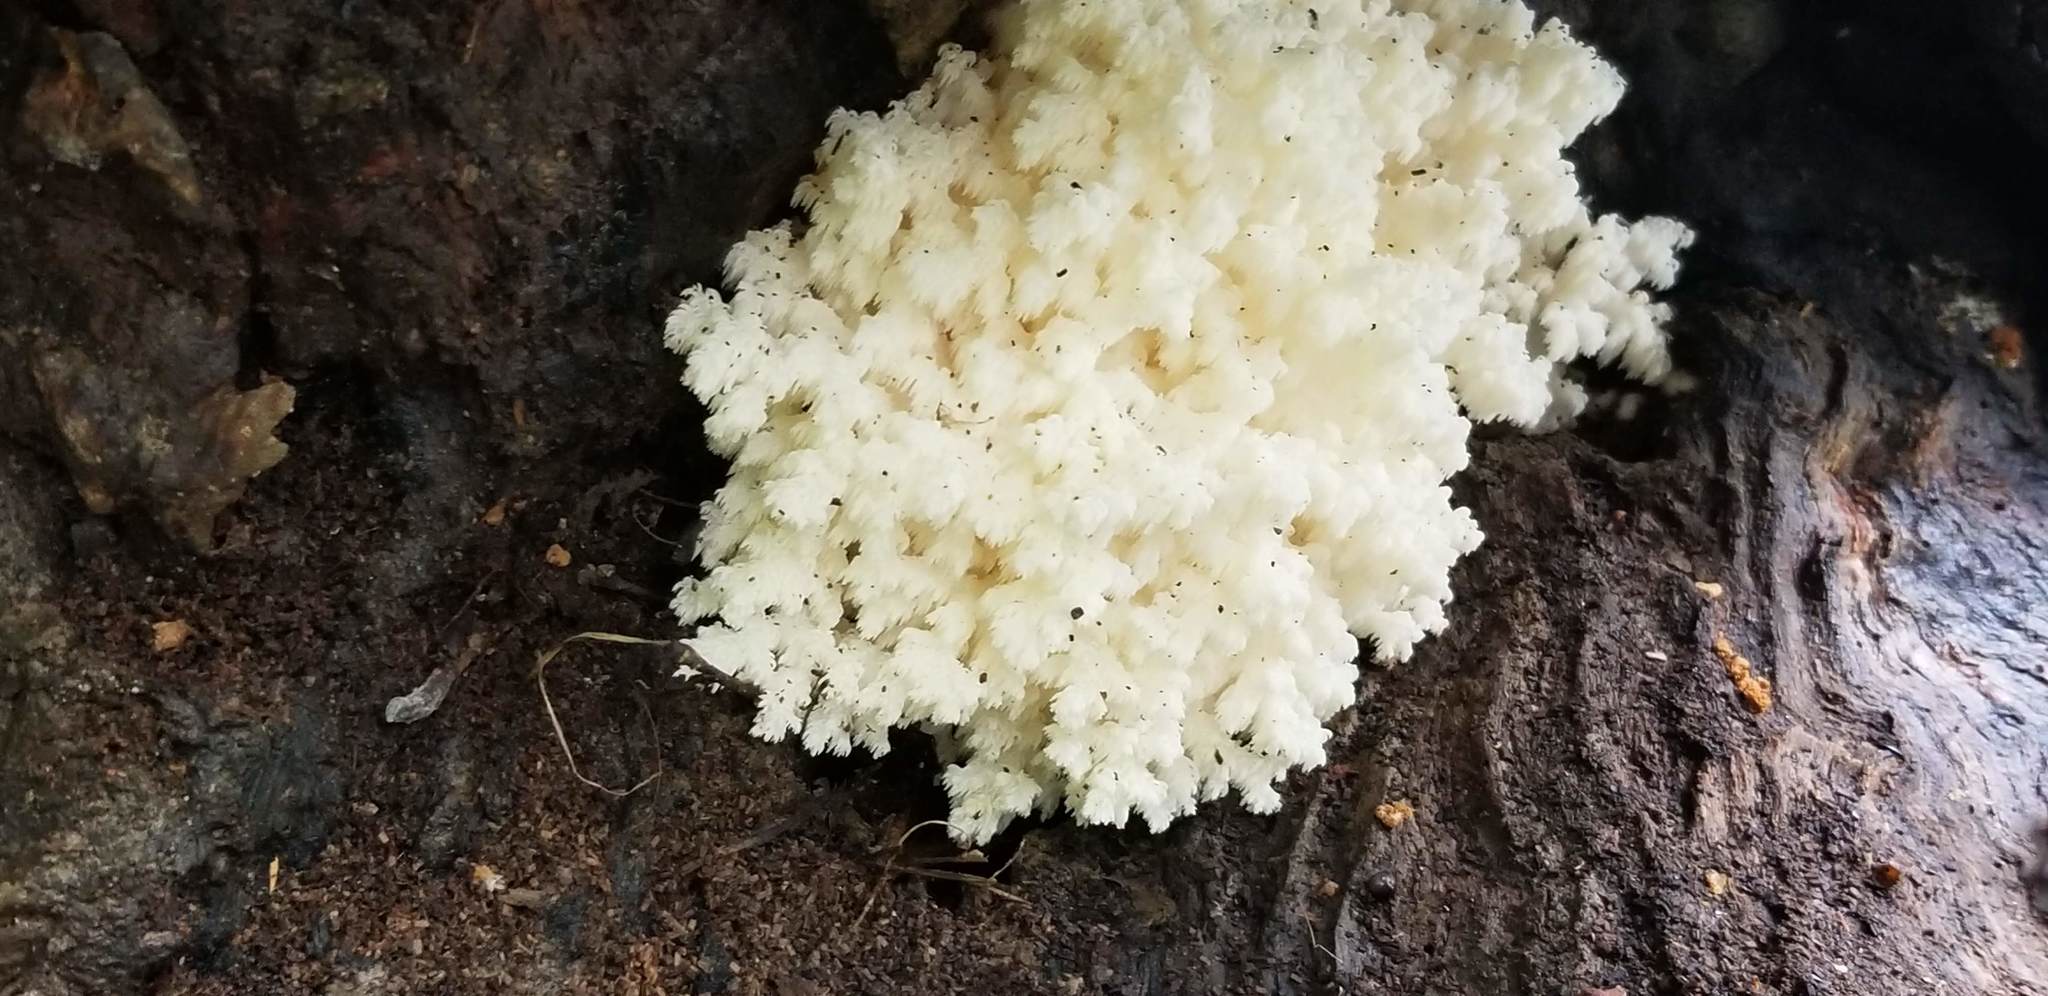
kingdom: Fungi
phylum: Basidiomycota
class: Agaricomycetes
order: Russulales
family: Hericiaceae
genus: Hericium
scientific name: Hericium coralloides
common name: Coral tooth
